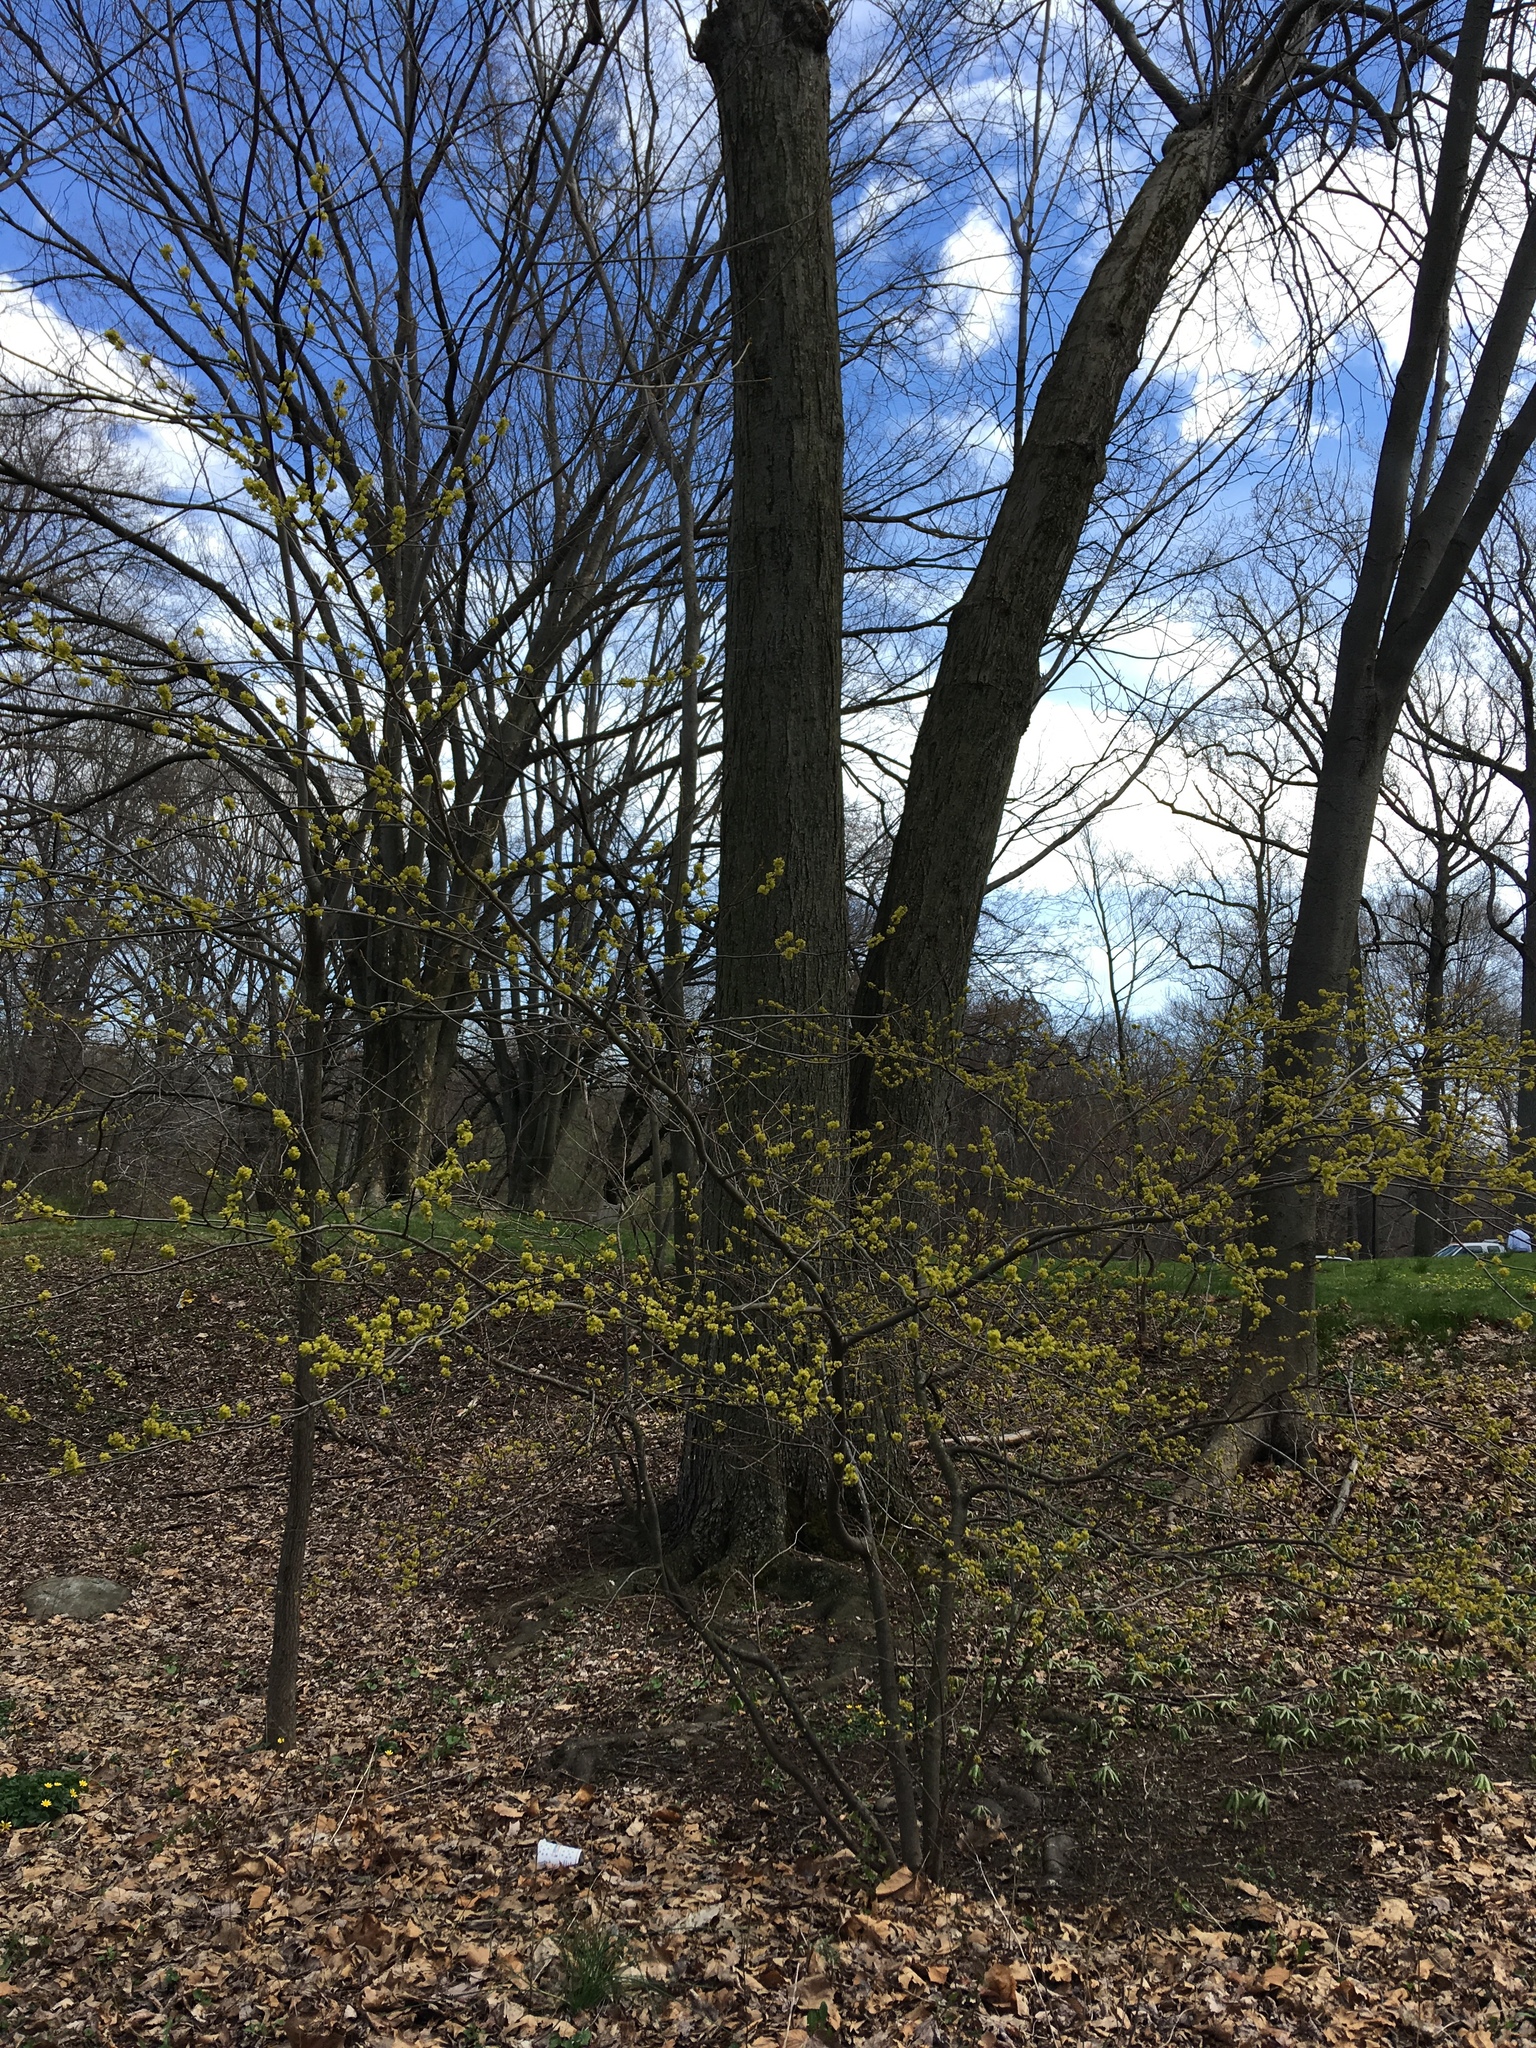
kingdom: Plantae
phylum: Tracheophyta
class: Magnoliopsida
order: Laurales
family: Lauraceae
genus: Lindera
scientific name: Lindera benzoin
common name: Spicebush
